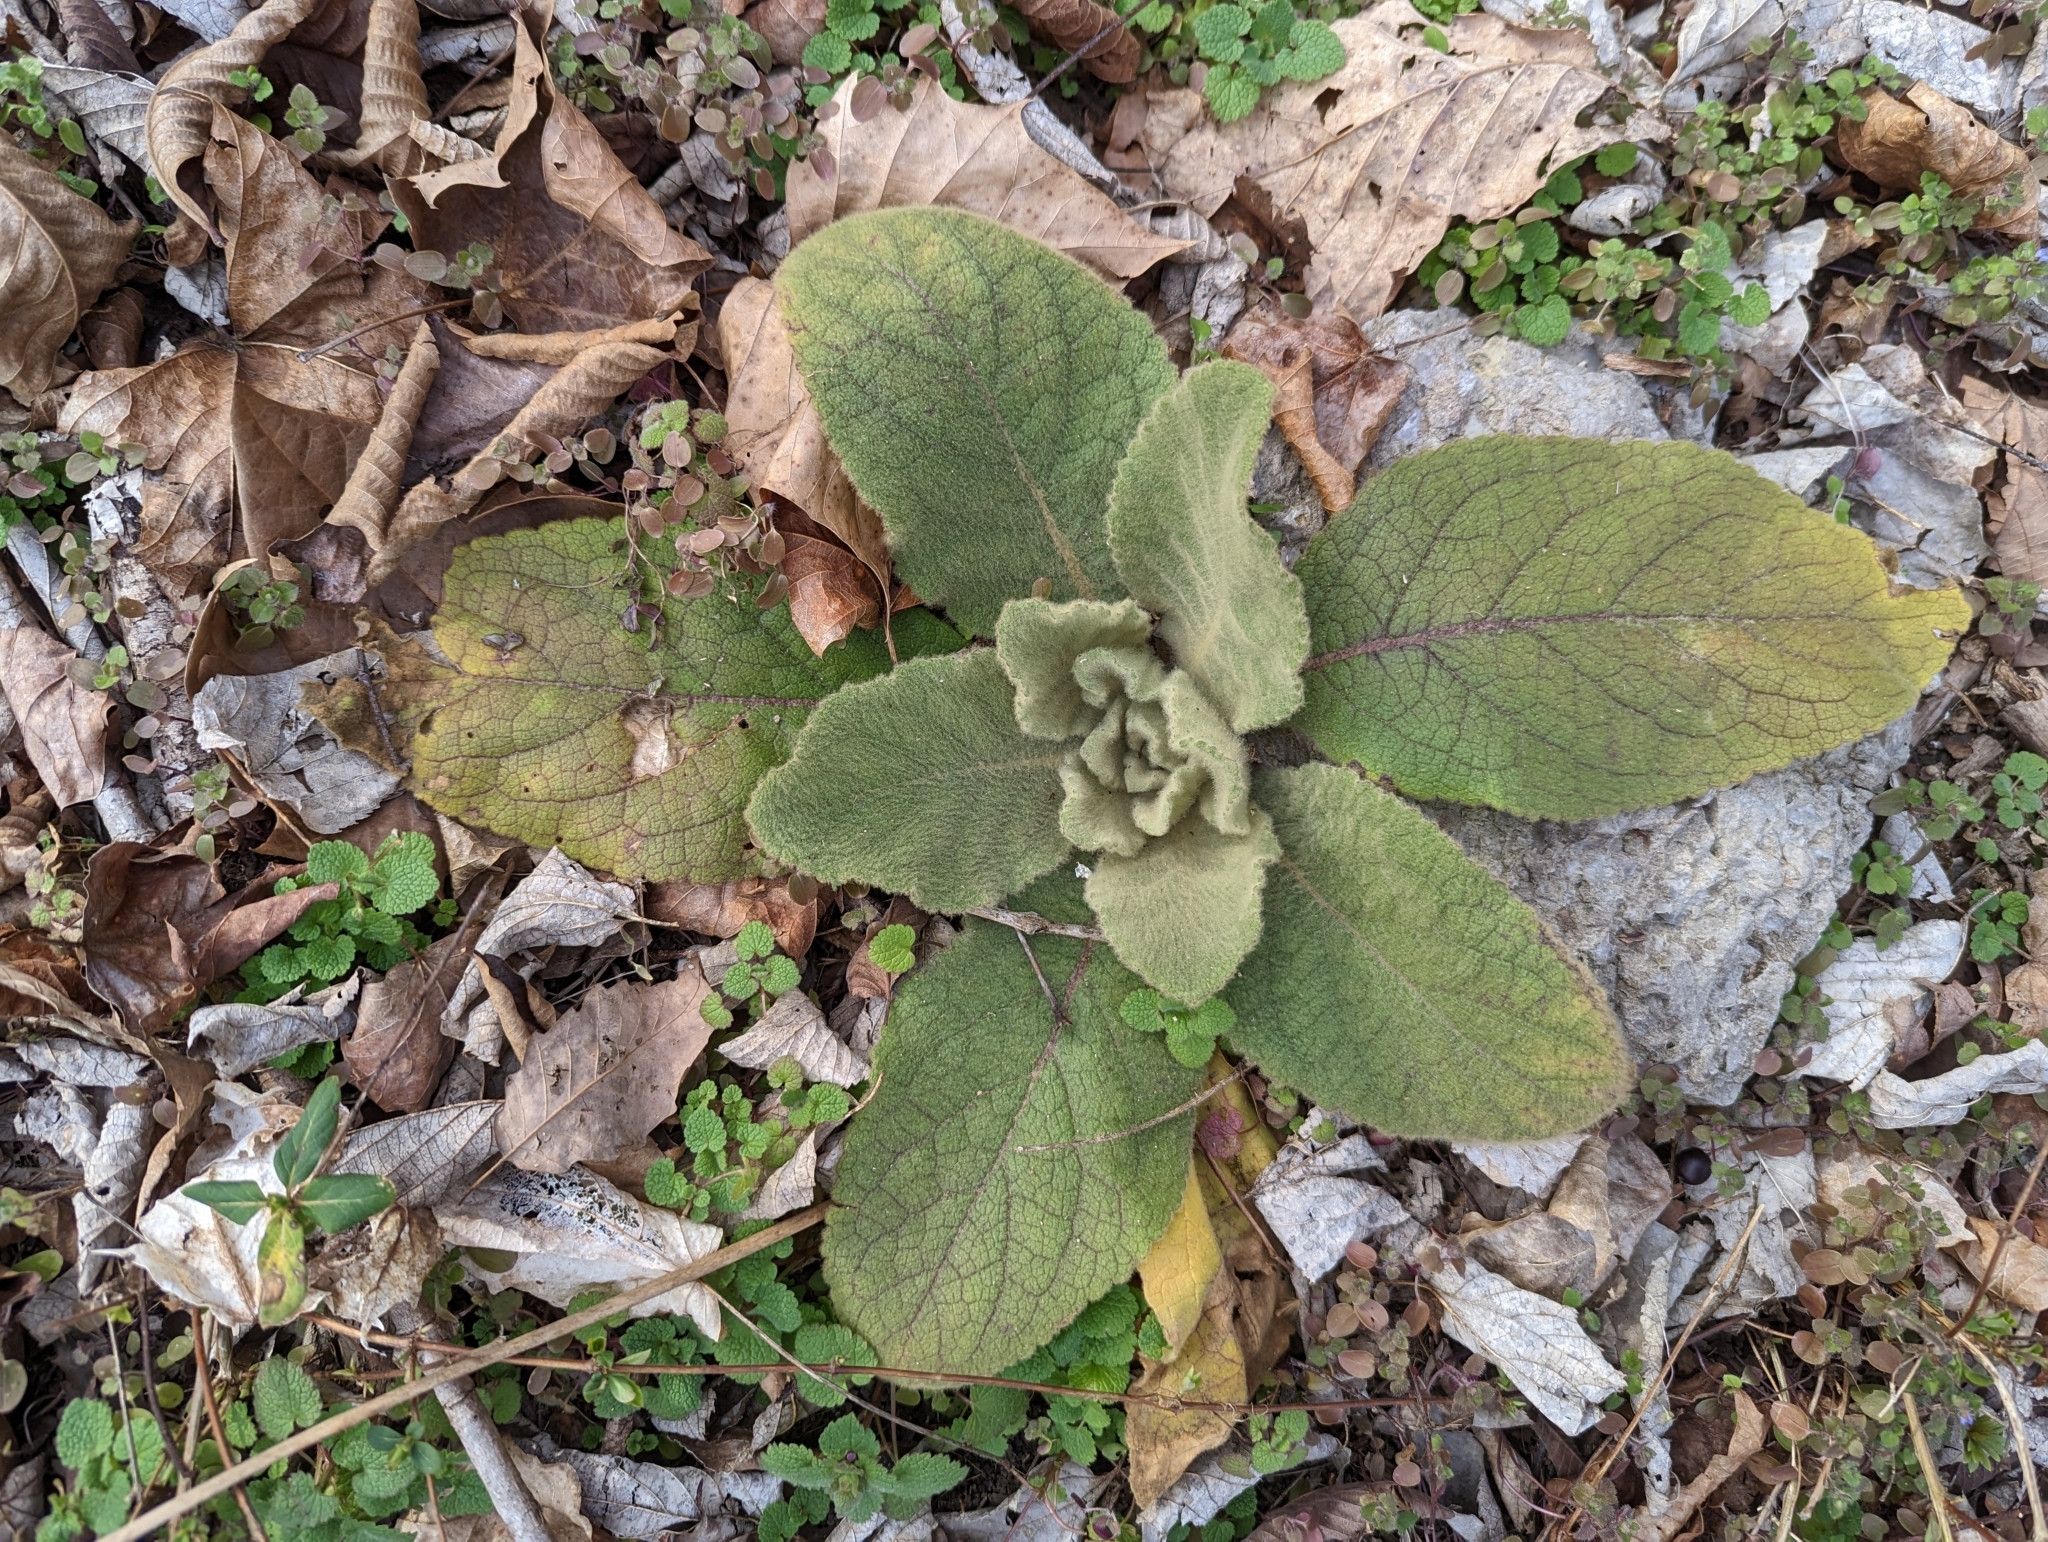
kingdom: Plantae
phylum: Tracheophyta
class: Magnoliopsida
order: Lamiales
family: Scrophulariaceae
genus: Verbascum
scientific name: Verbascum thapsus
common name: Common mullein
